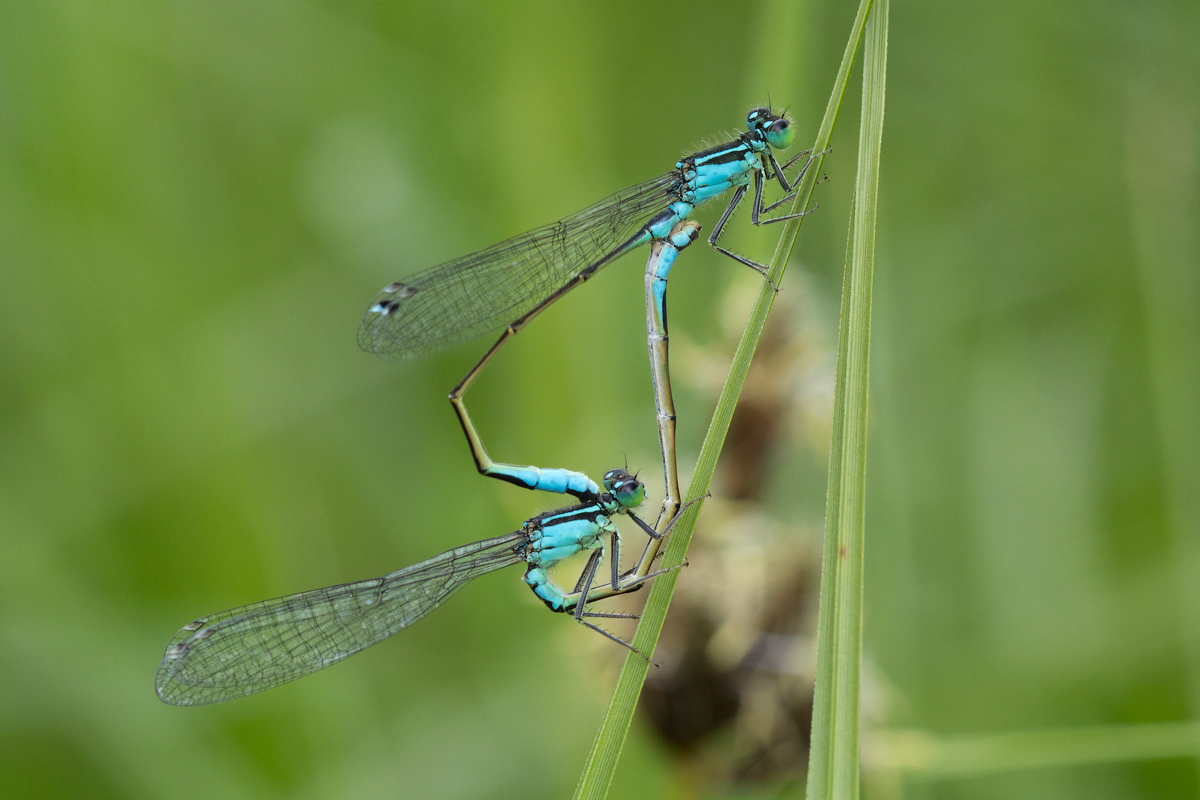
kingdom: Animalia
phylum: Arthropoda
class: Insecta
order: Odonata
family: Coenagrionidae
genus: Ischnura
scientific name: Ischnura elegans
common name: Blue-tailed damselfly
